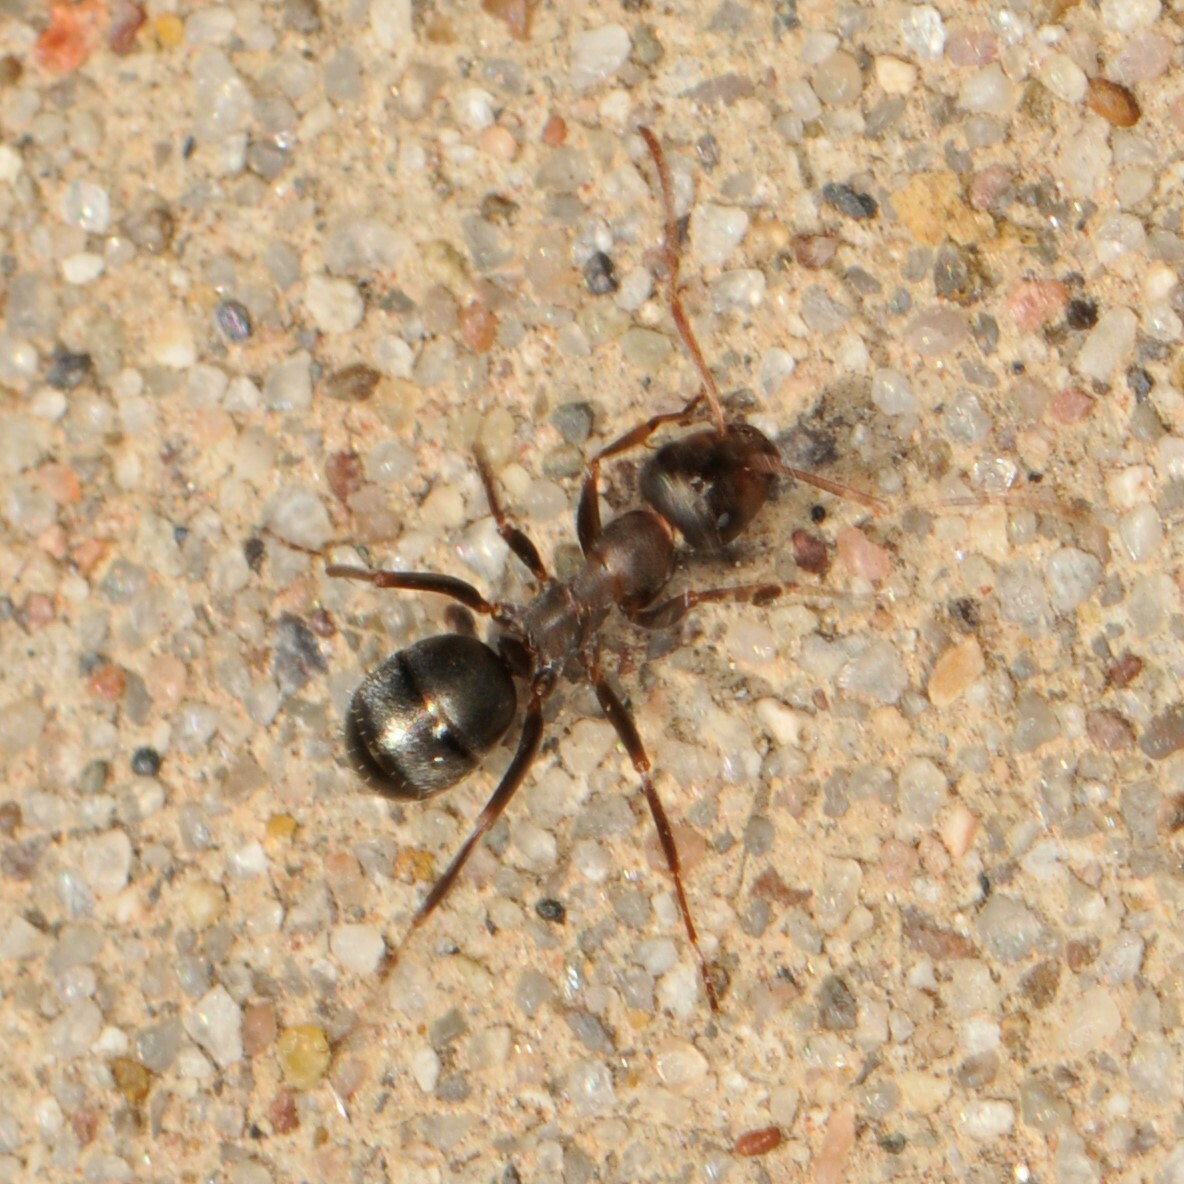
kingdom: Animalia
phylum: Arthropoda
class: Insecta
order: Hymenoptera
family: Formicidae
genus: Formica
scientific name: Formica
